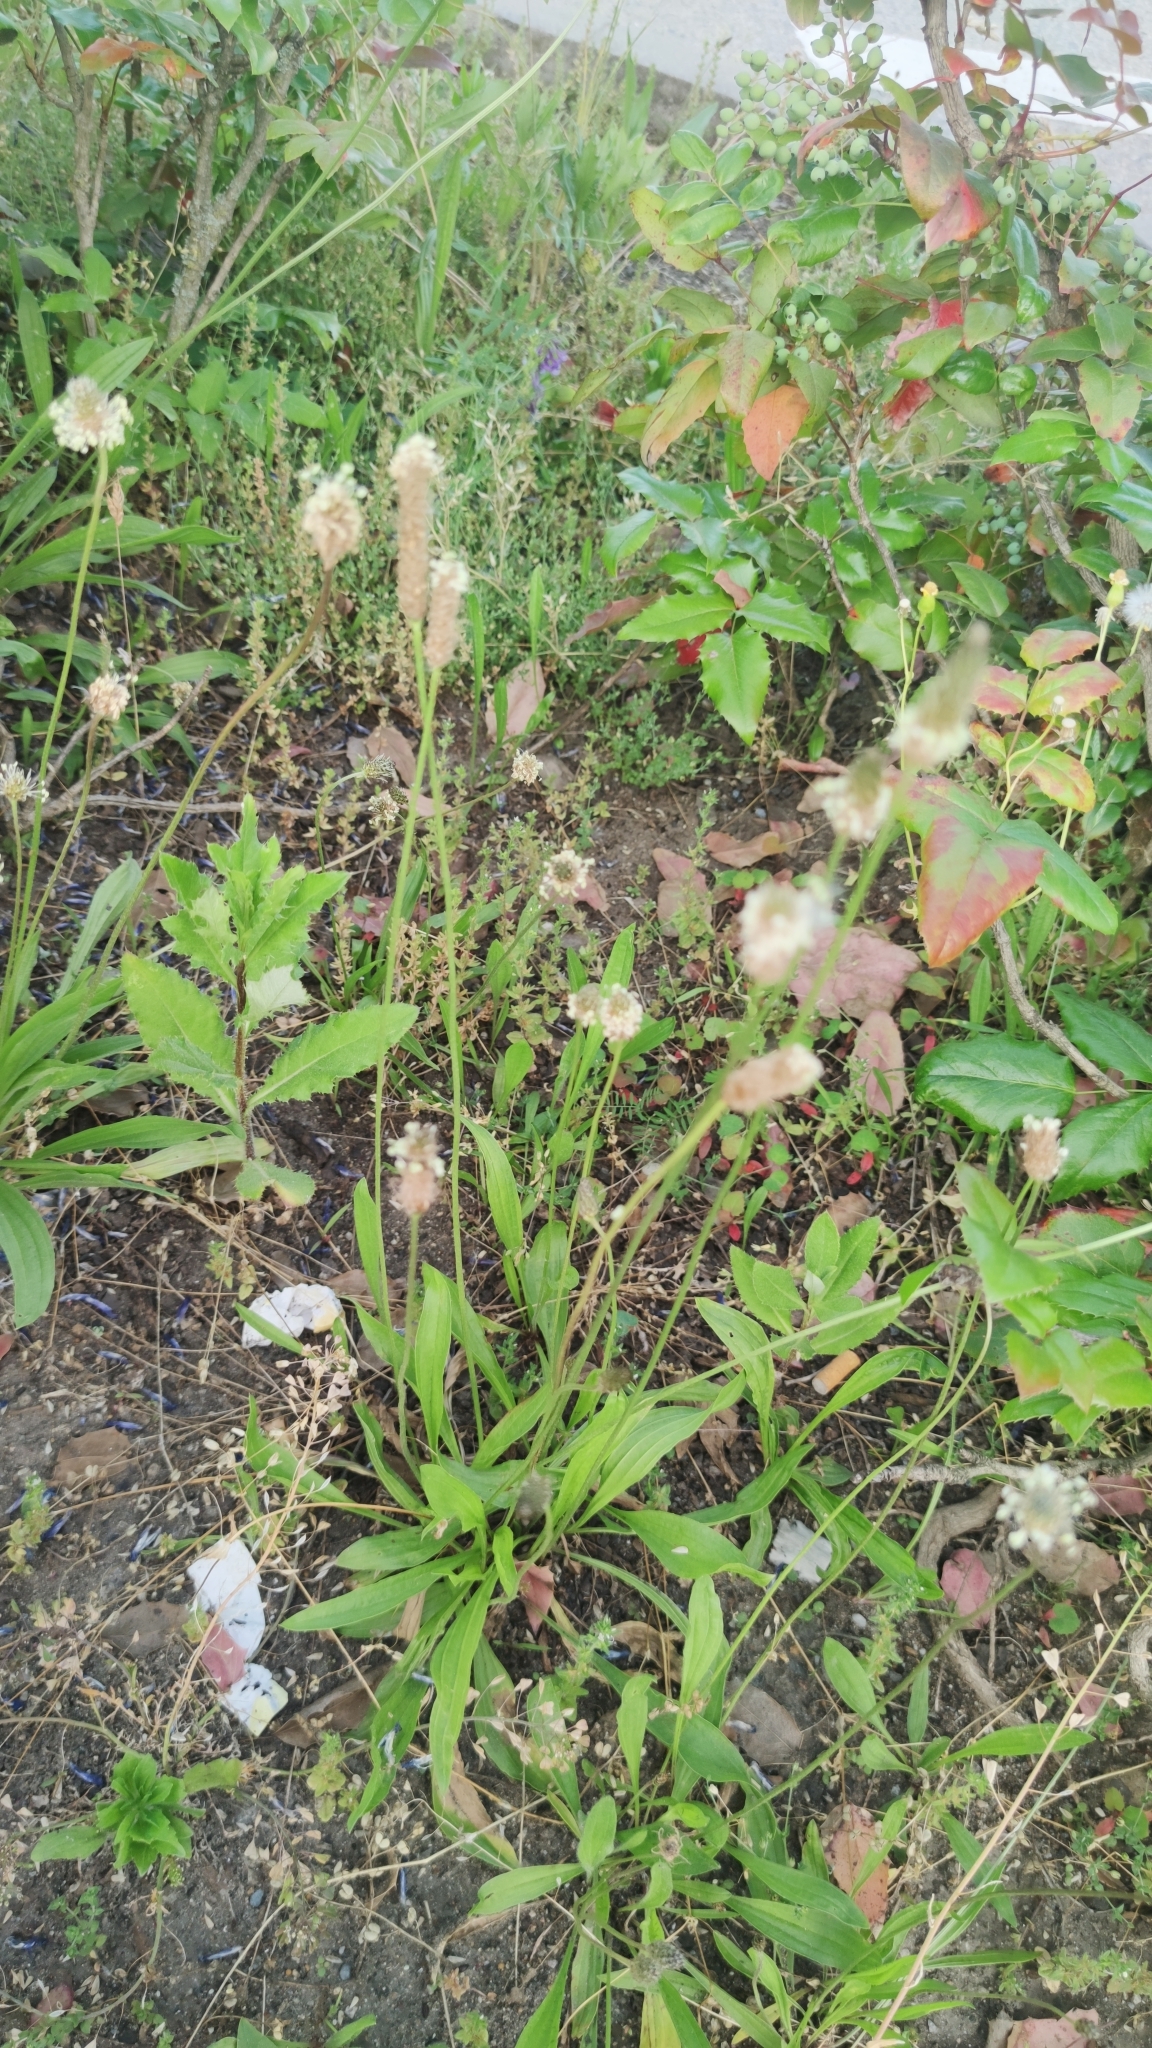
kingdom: Plantae
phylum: Tracheophyta
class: Magnoliopsida
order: Lamiales
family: Plantaginaceae
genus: Plantago
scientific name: Plantago lanceolata
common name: Ribwort plantain
